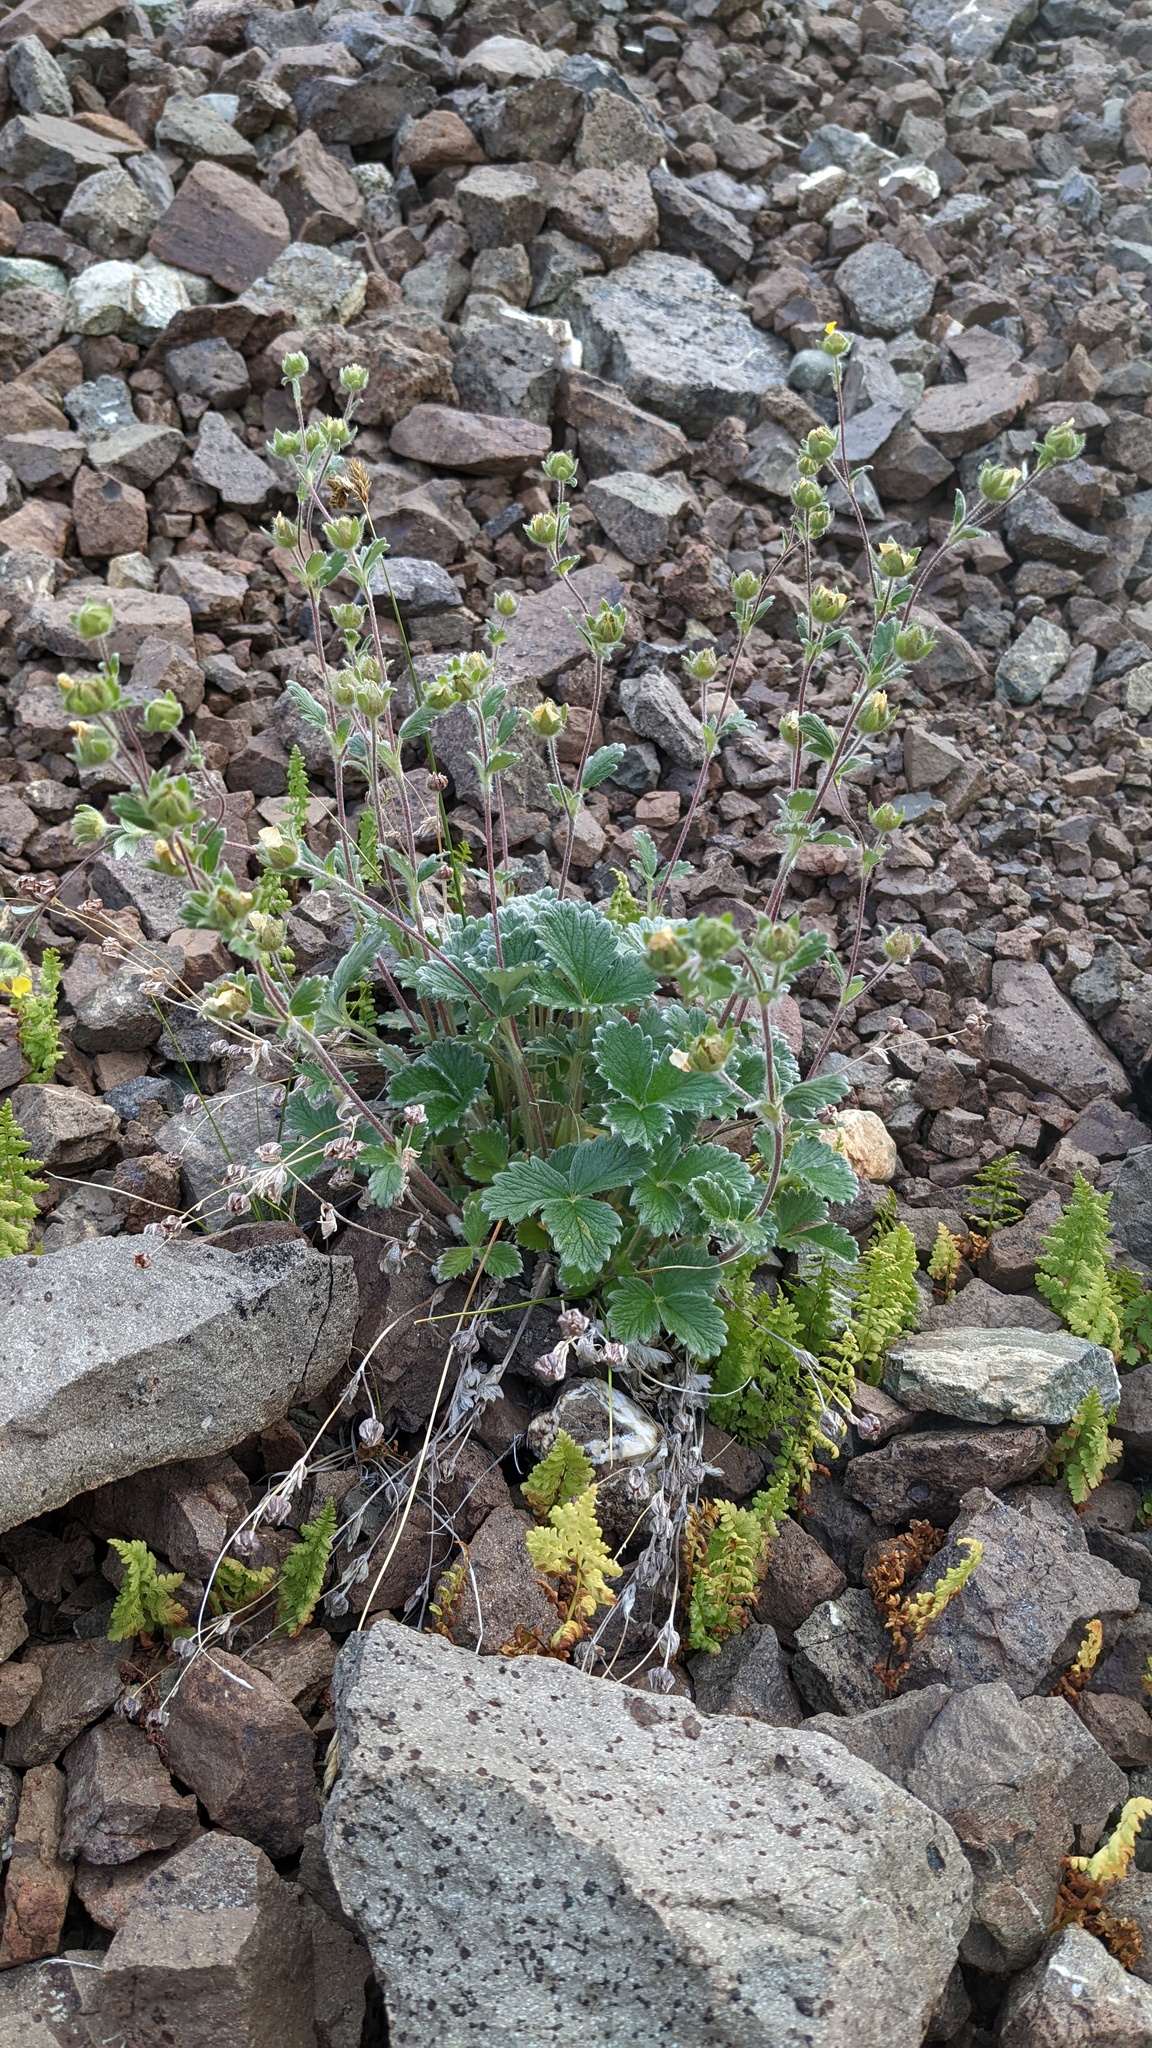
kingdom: Plantae
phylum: Tracheophyta
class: Magnoliopsida
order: Rosales
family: Rosaceae
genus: Potentilla
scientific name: Potentilla villosa
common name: Northern cinquefoil
